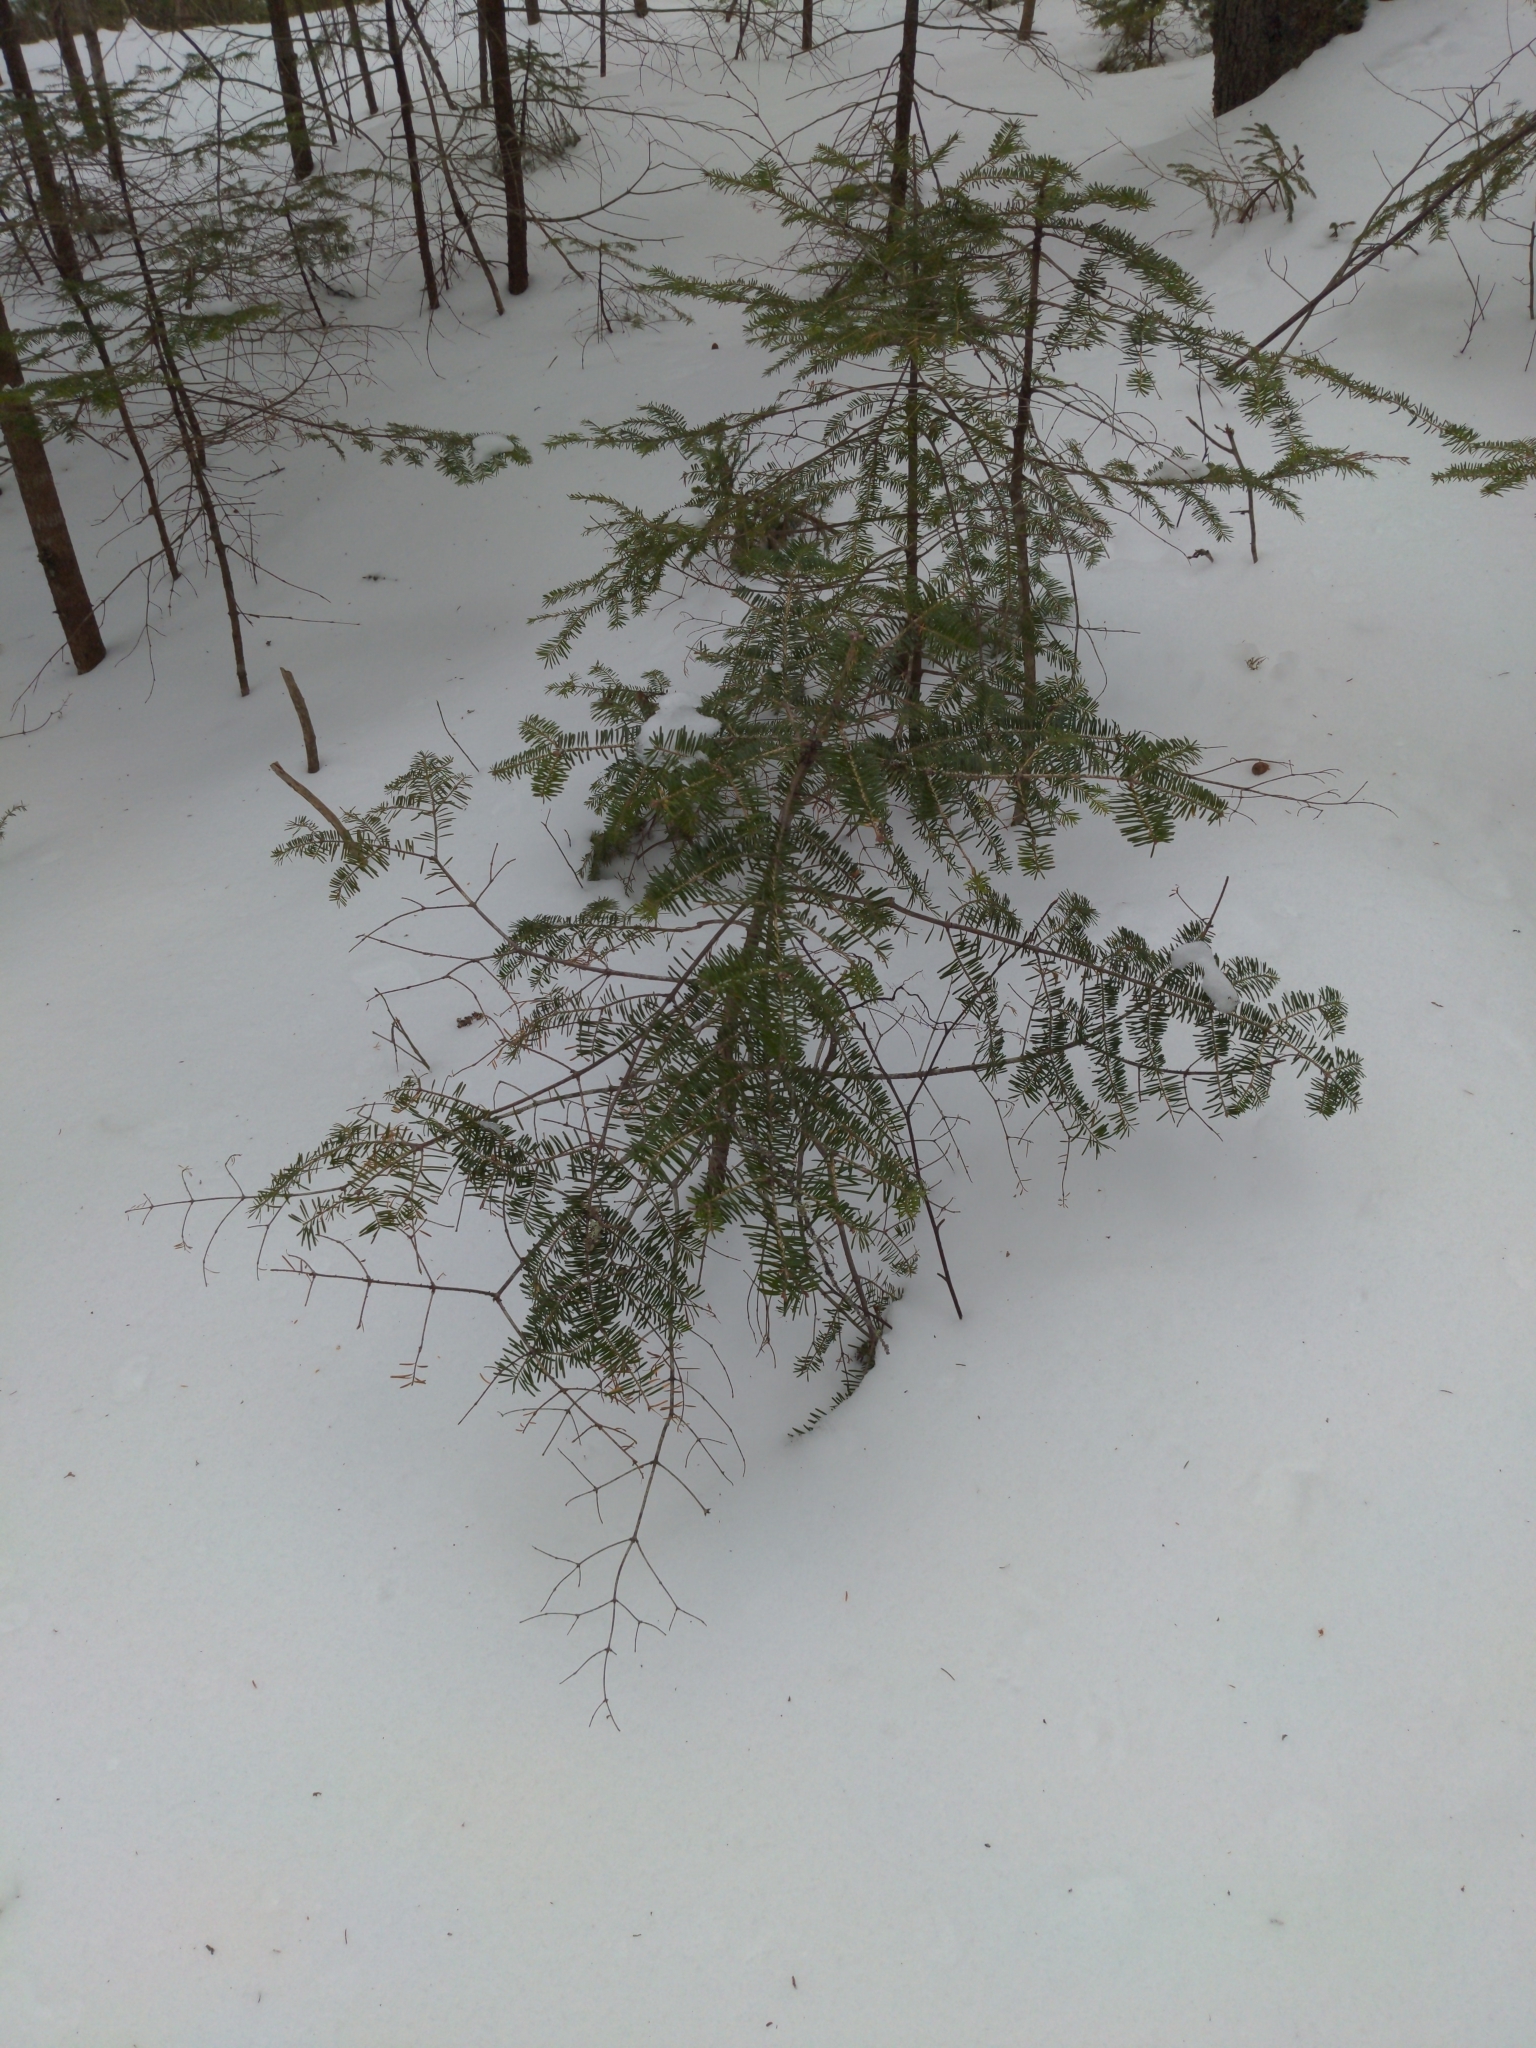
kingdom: Plantae
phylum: Tracheophyta
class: Pinopsida
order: Pinales
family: Pinaceae
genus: Abies
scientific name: Abies balsamea
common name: Balsam fir
